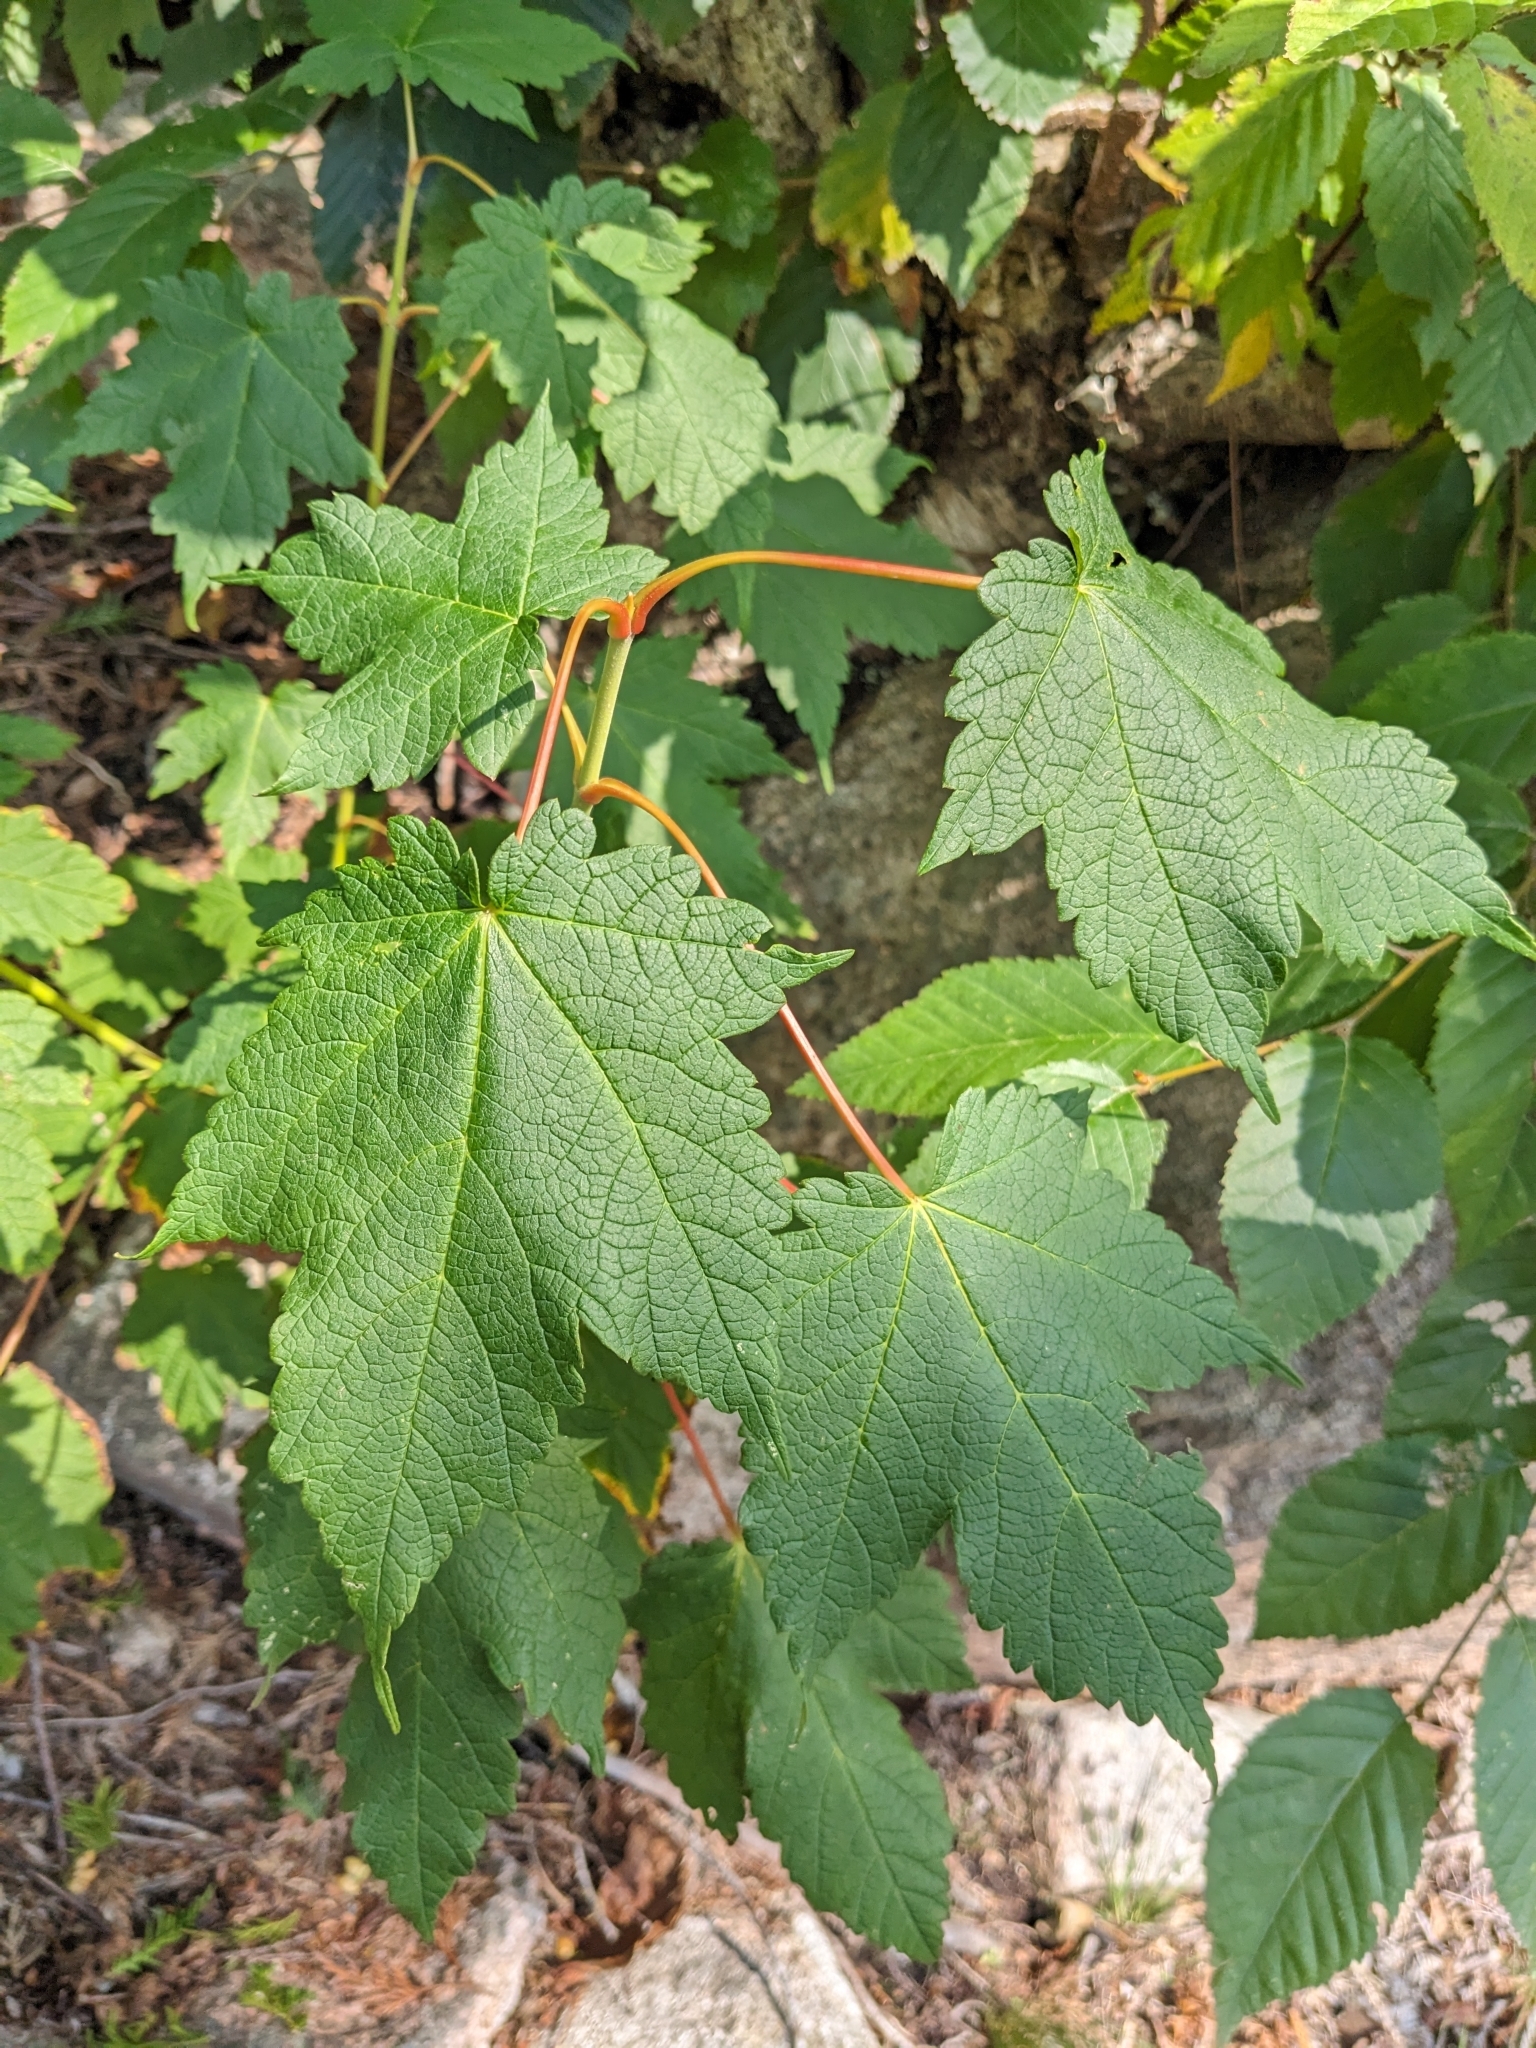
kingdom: Plantae
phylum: Tracheophyta
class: Magnoliopsida
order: Sapindales
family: Sapindaceae
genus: Acer
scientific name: Acer spicatum
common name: Mountain maple
